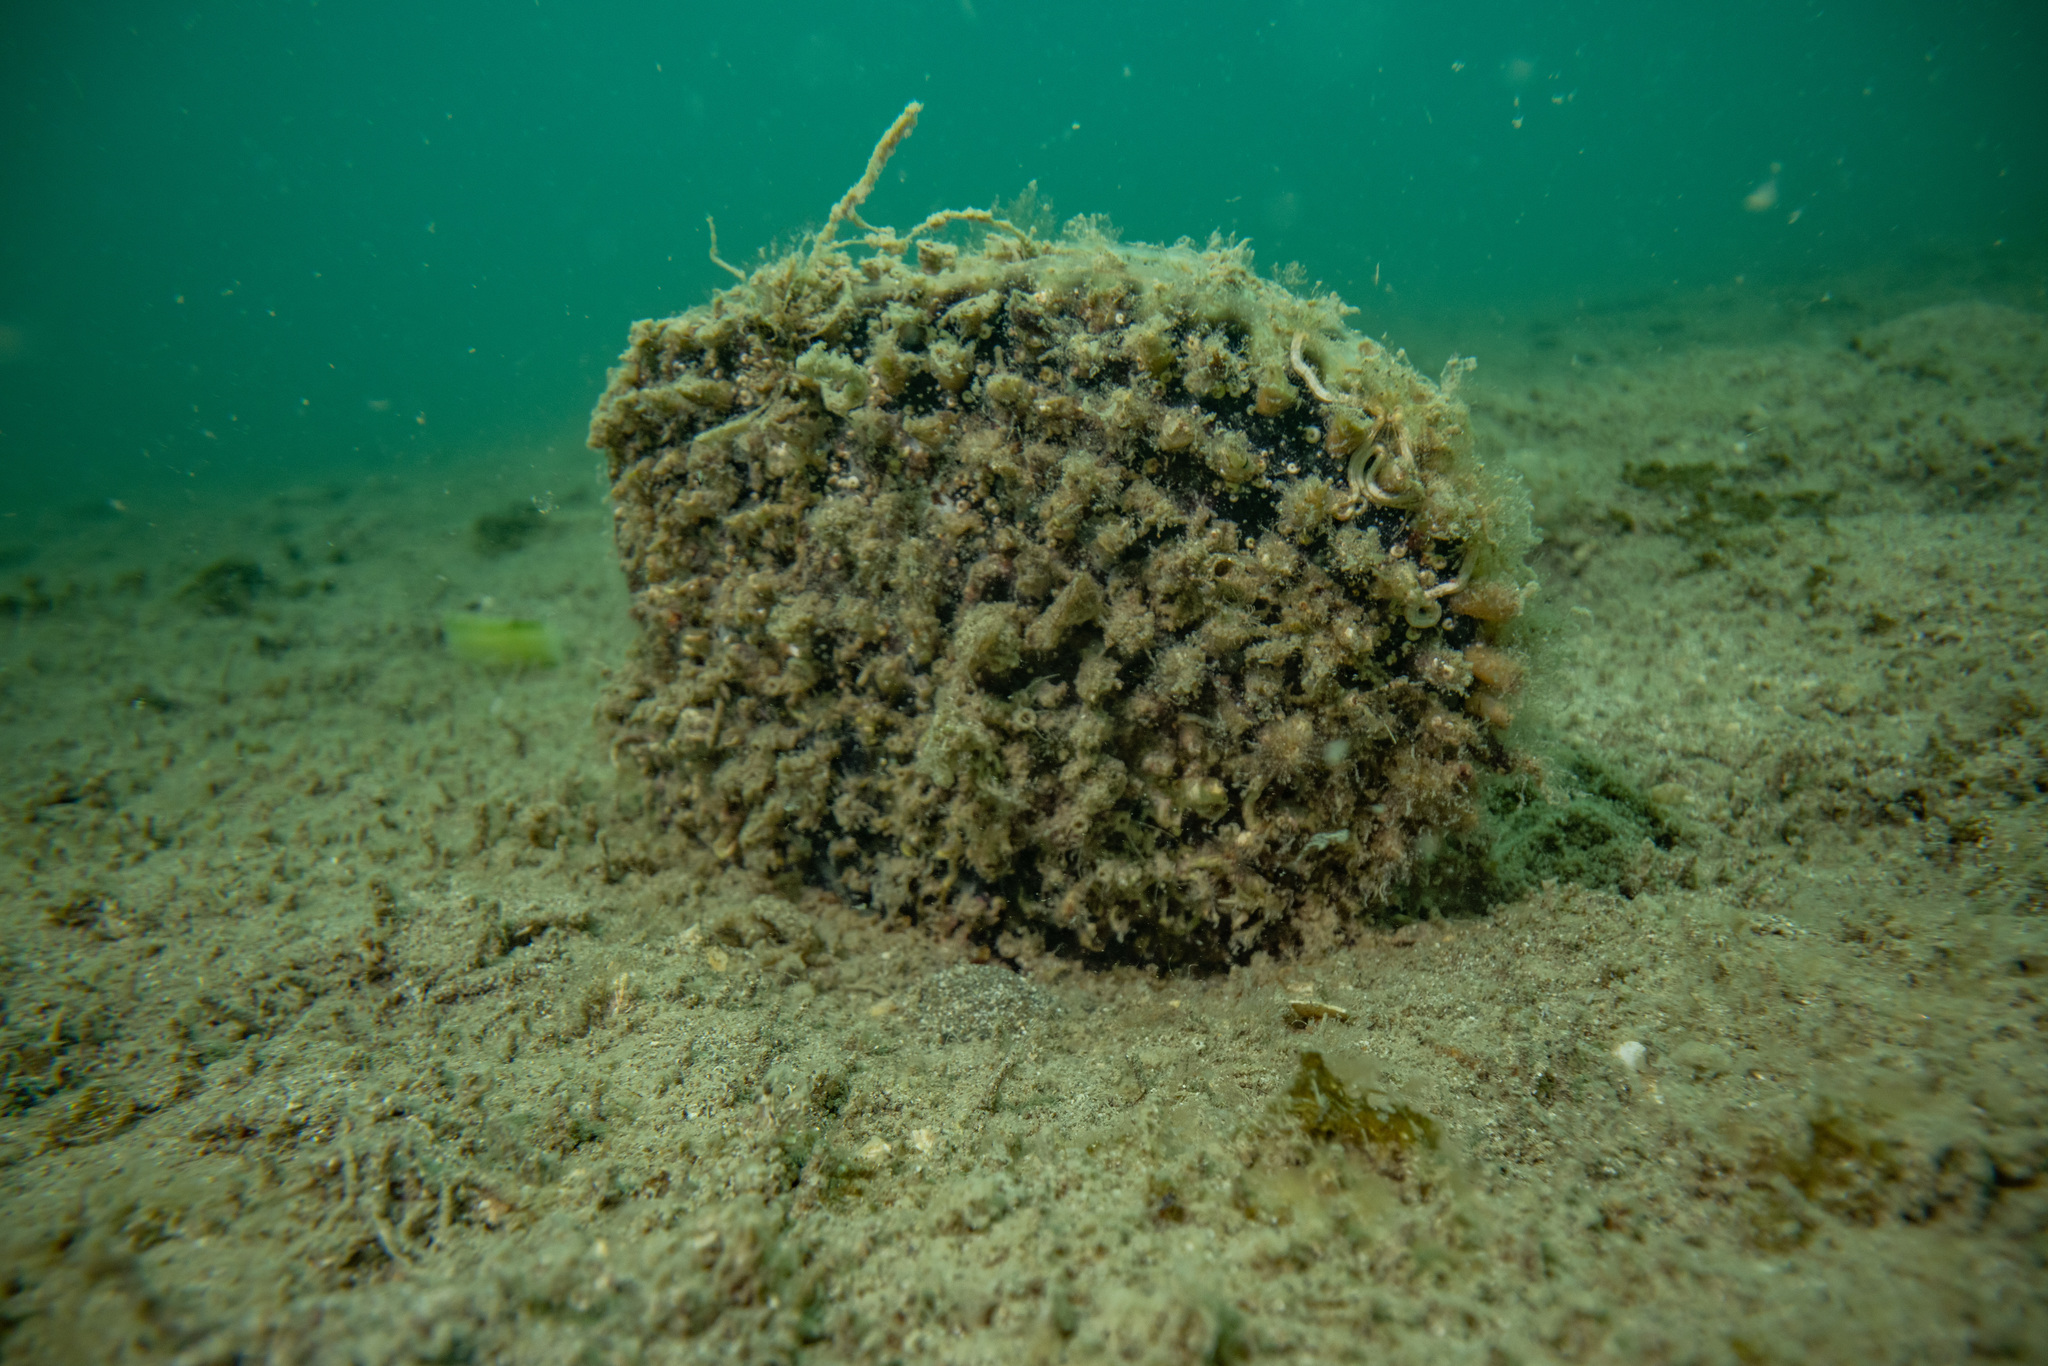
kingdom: Animalia
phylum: Mollusca
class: Bivalvia
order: Ostreida
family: Pinnidae
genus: Atrina
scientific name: Atrina zelandica
